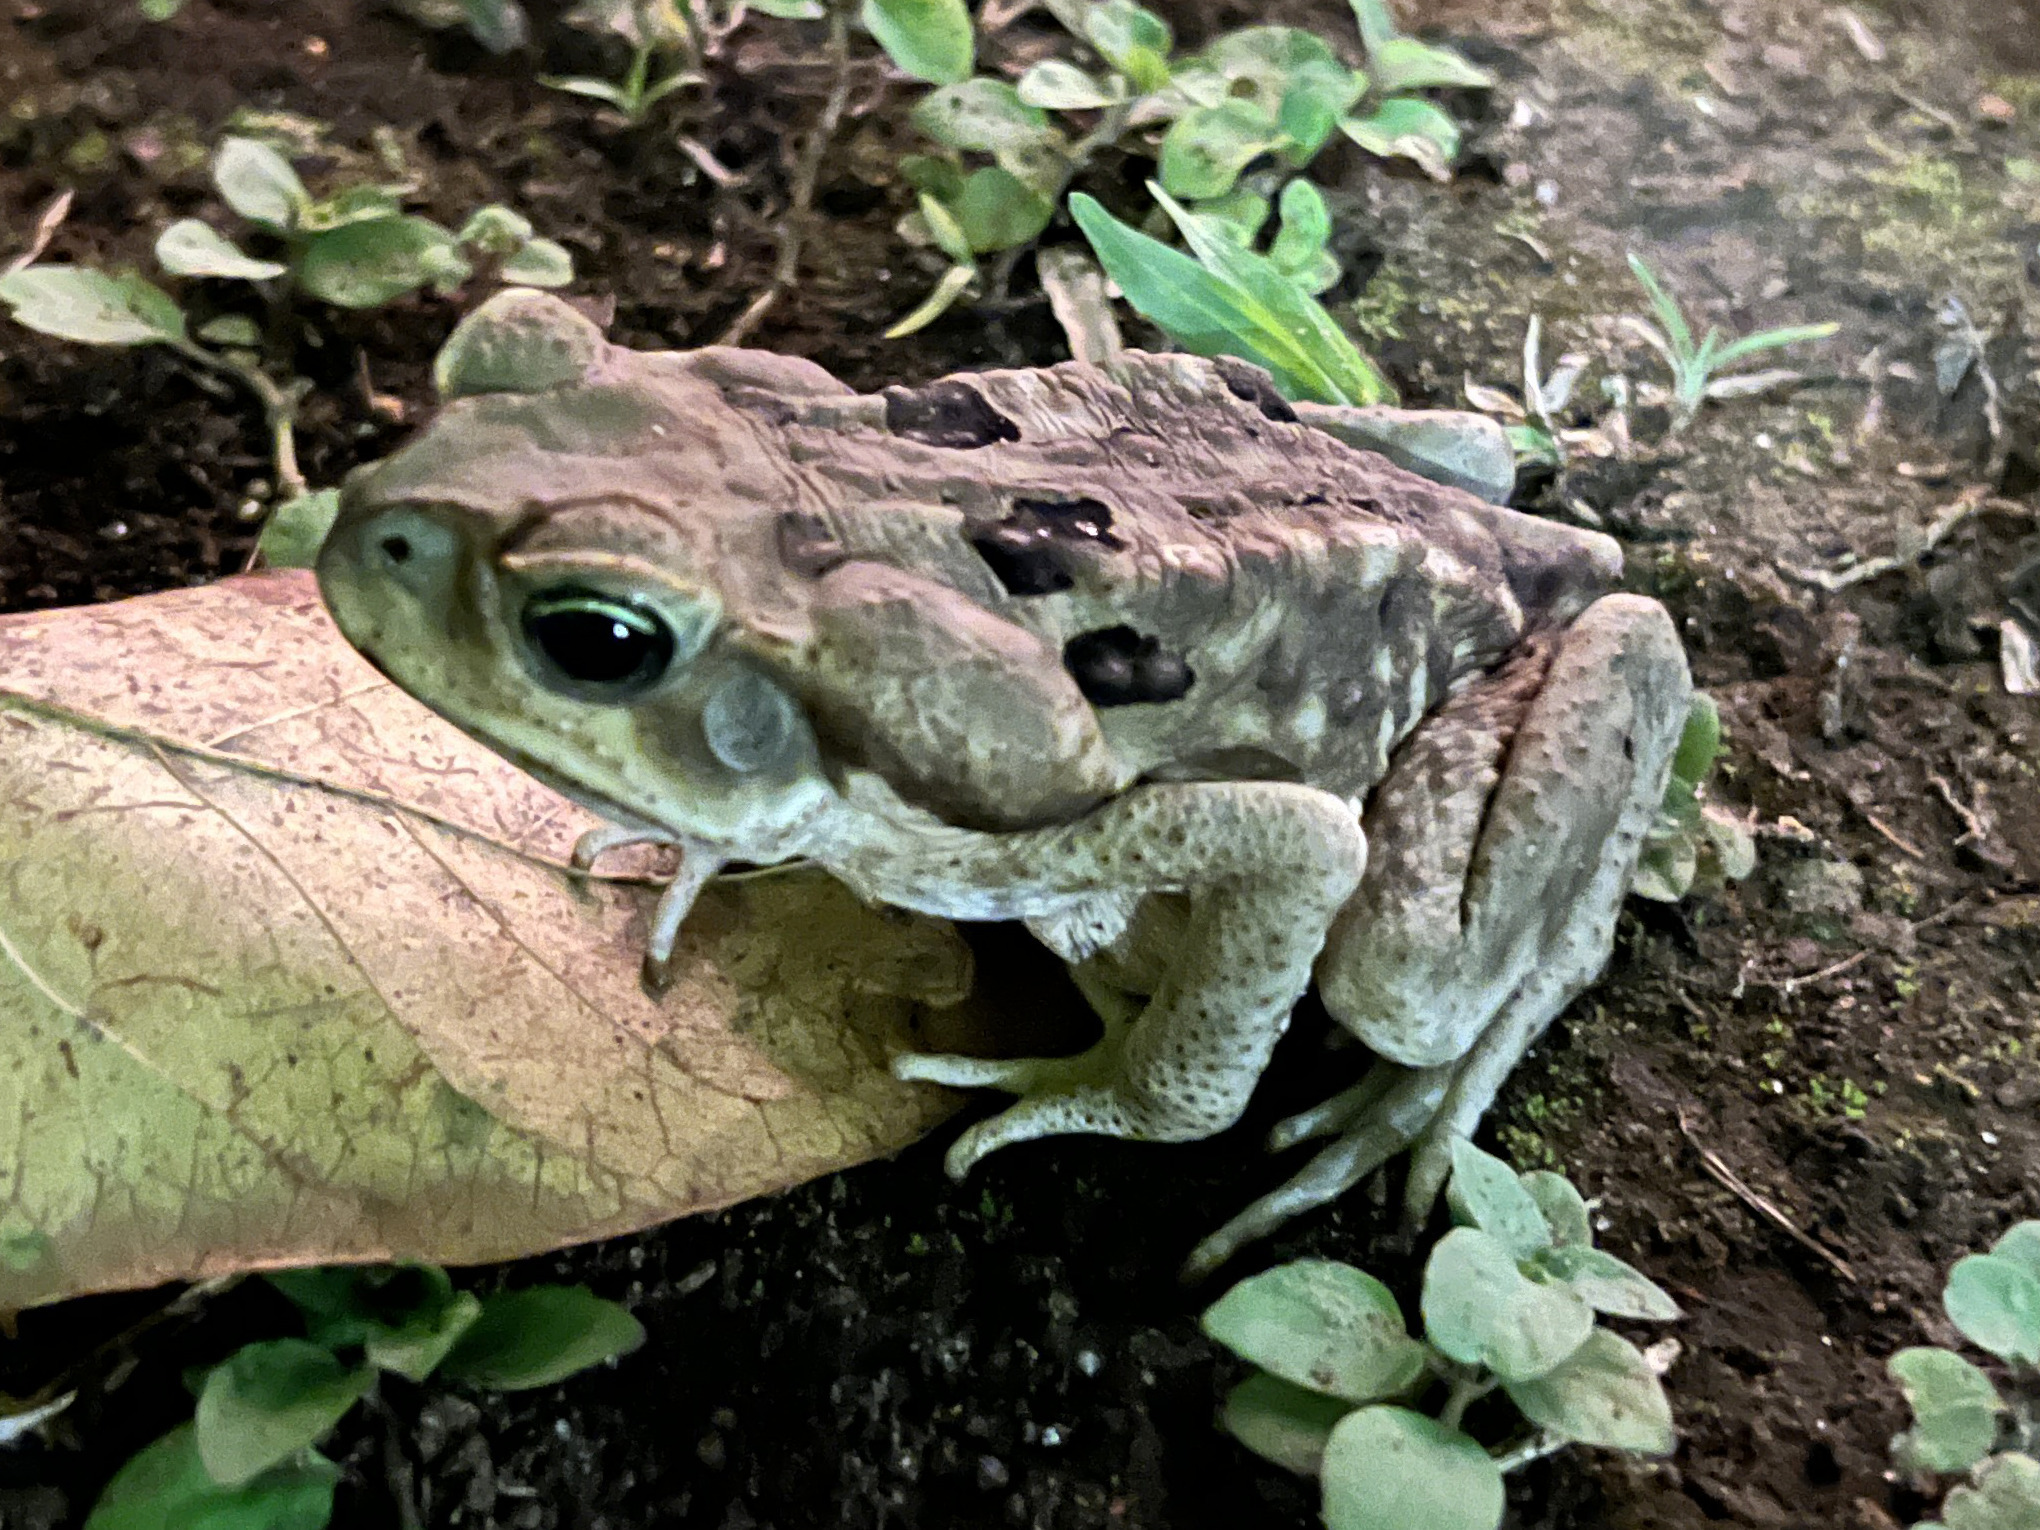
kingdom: Animalia
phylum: Chordata
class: Amphibia
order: Anura
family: Bufonidae
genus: Rhinella
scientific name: Rhinella horribilis
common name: Mesoamerican cane toad
